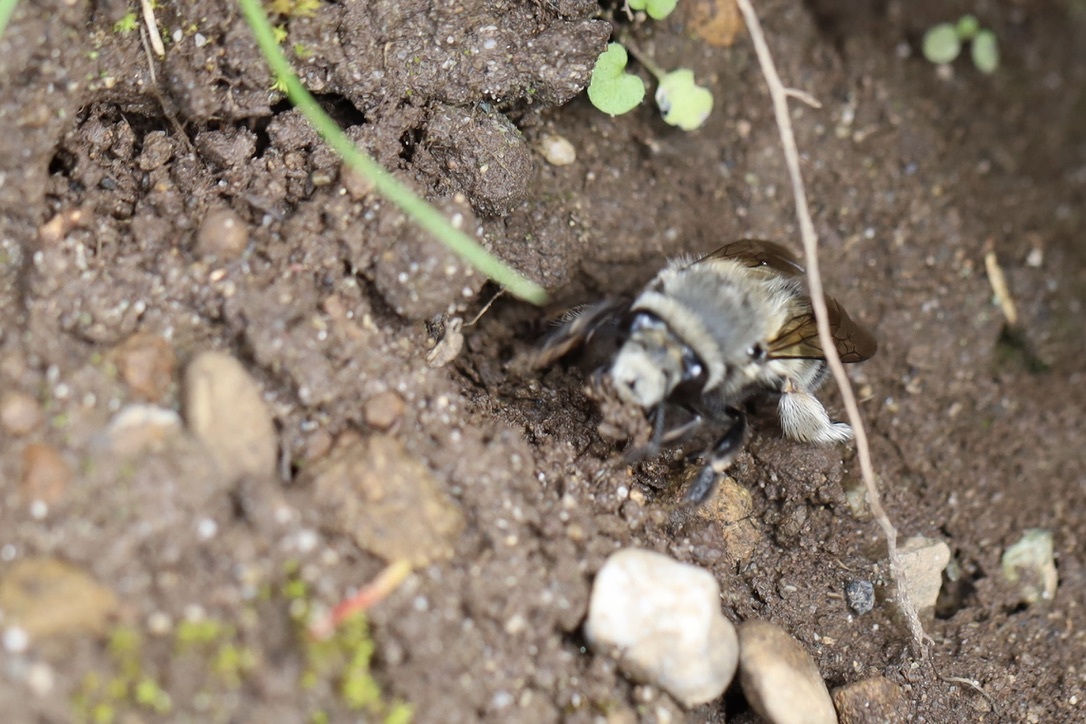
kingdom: Animalia
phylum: Arthropoda
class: Insecta
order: Hymenoptera
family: Apidae
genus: Anthophora
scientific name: Anthophora pacifica
